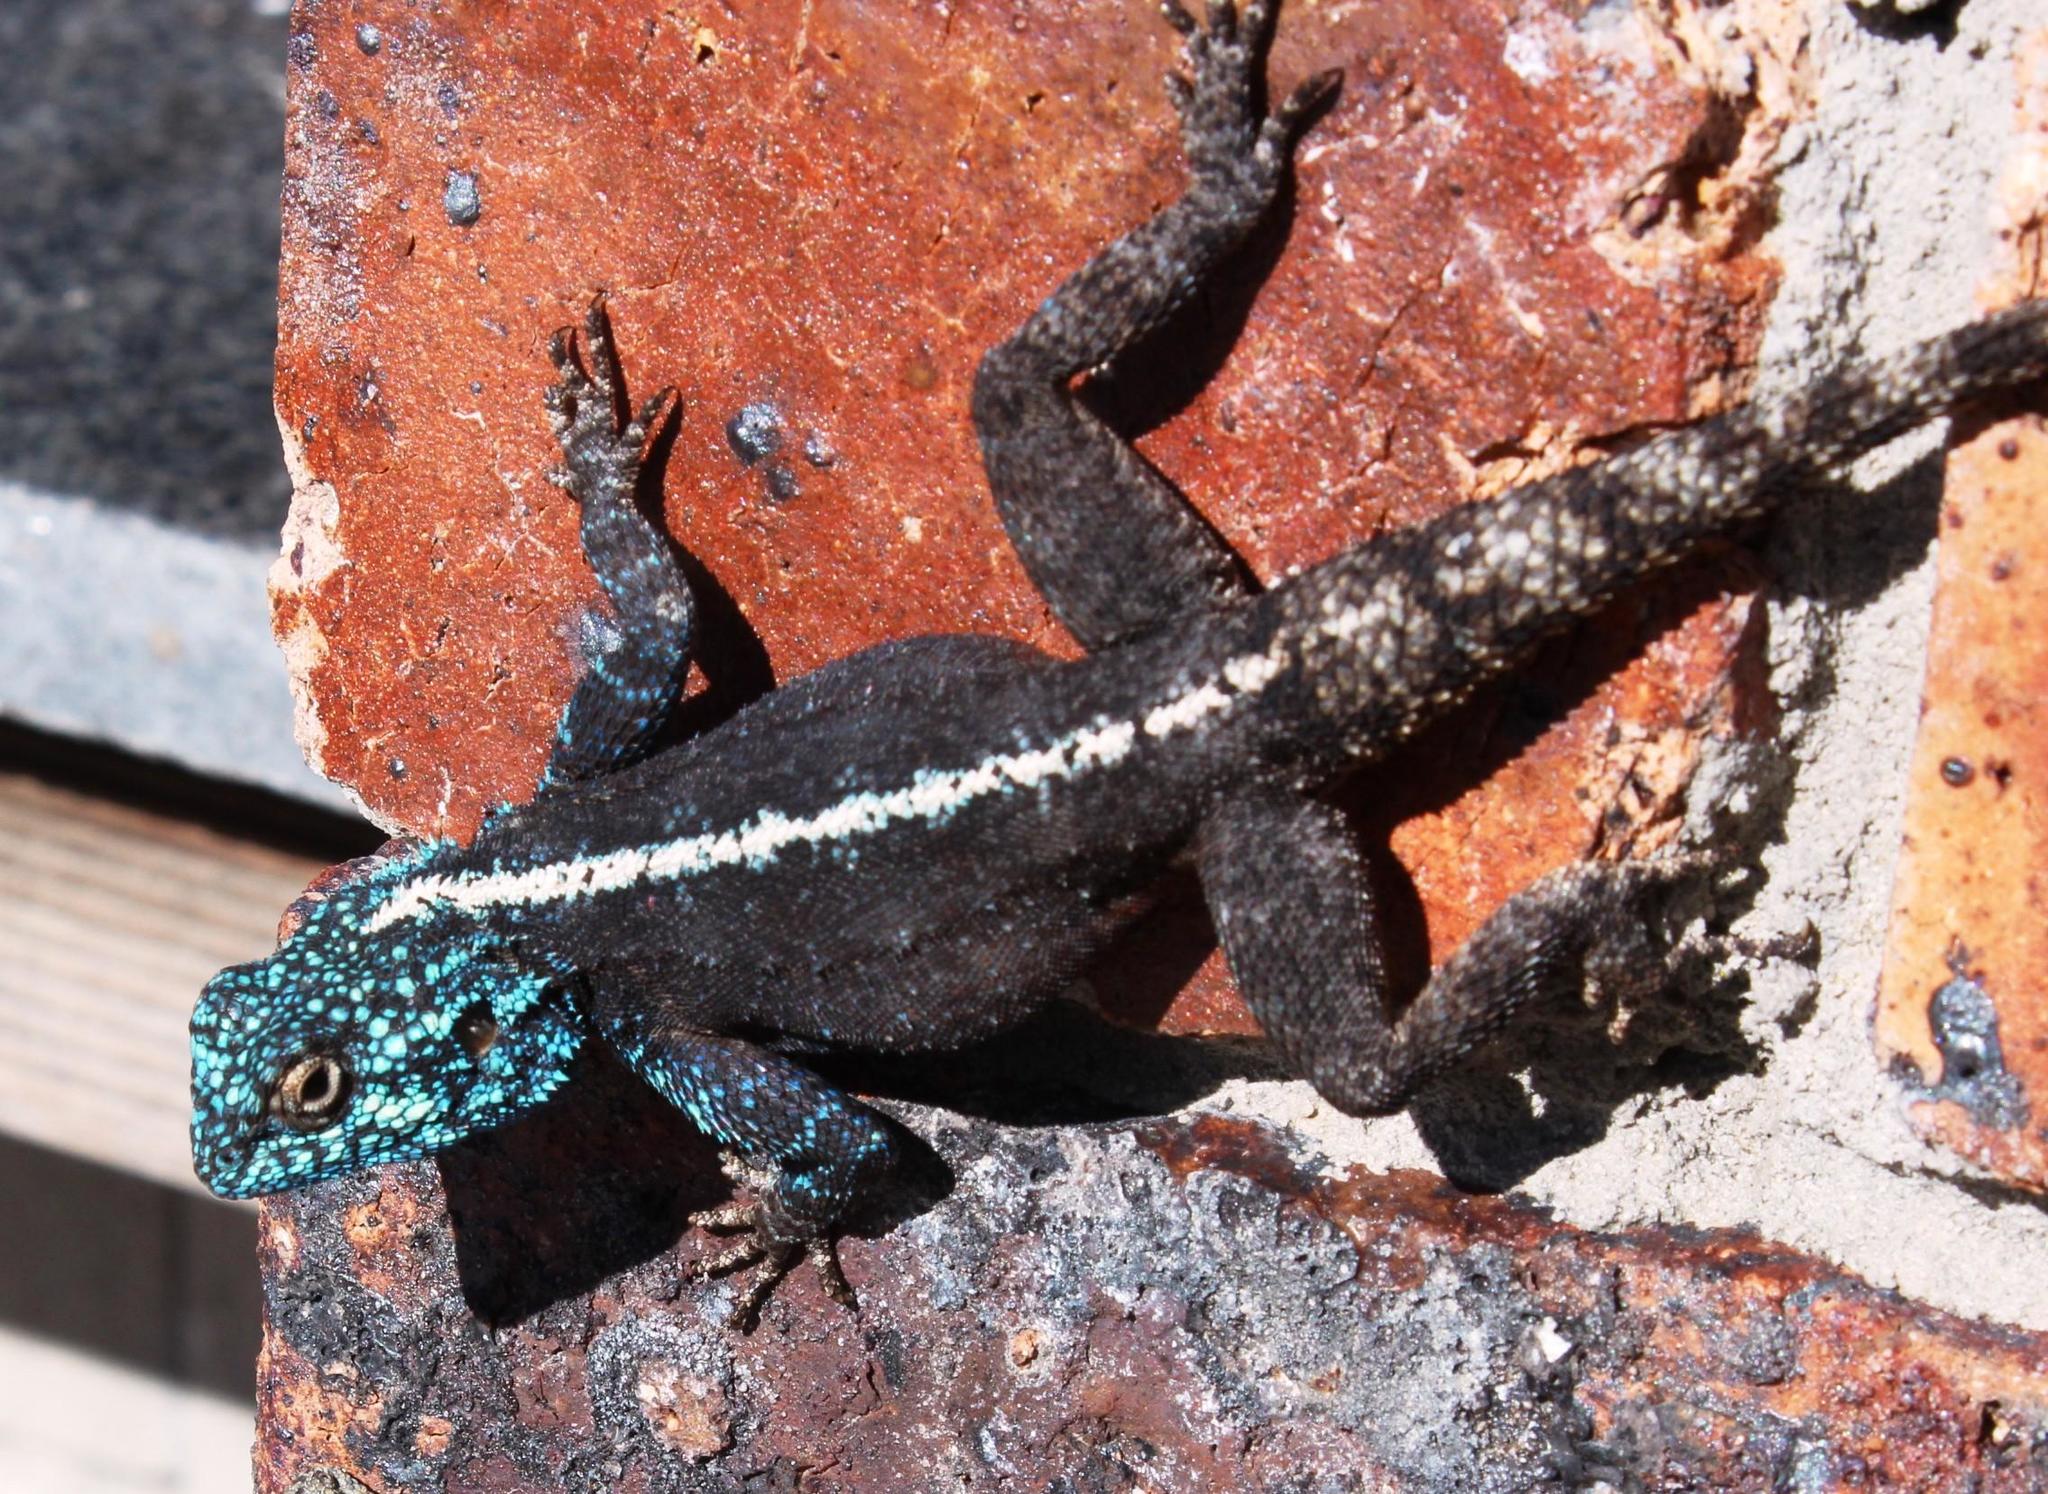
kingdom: Animalia
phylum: Chordata
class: Squamata
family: Agamidae
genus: Agama
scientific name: Agama atra
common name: Southern african rock agama
